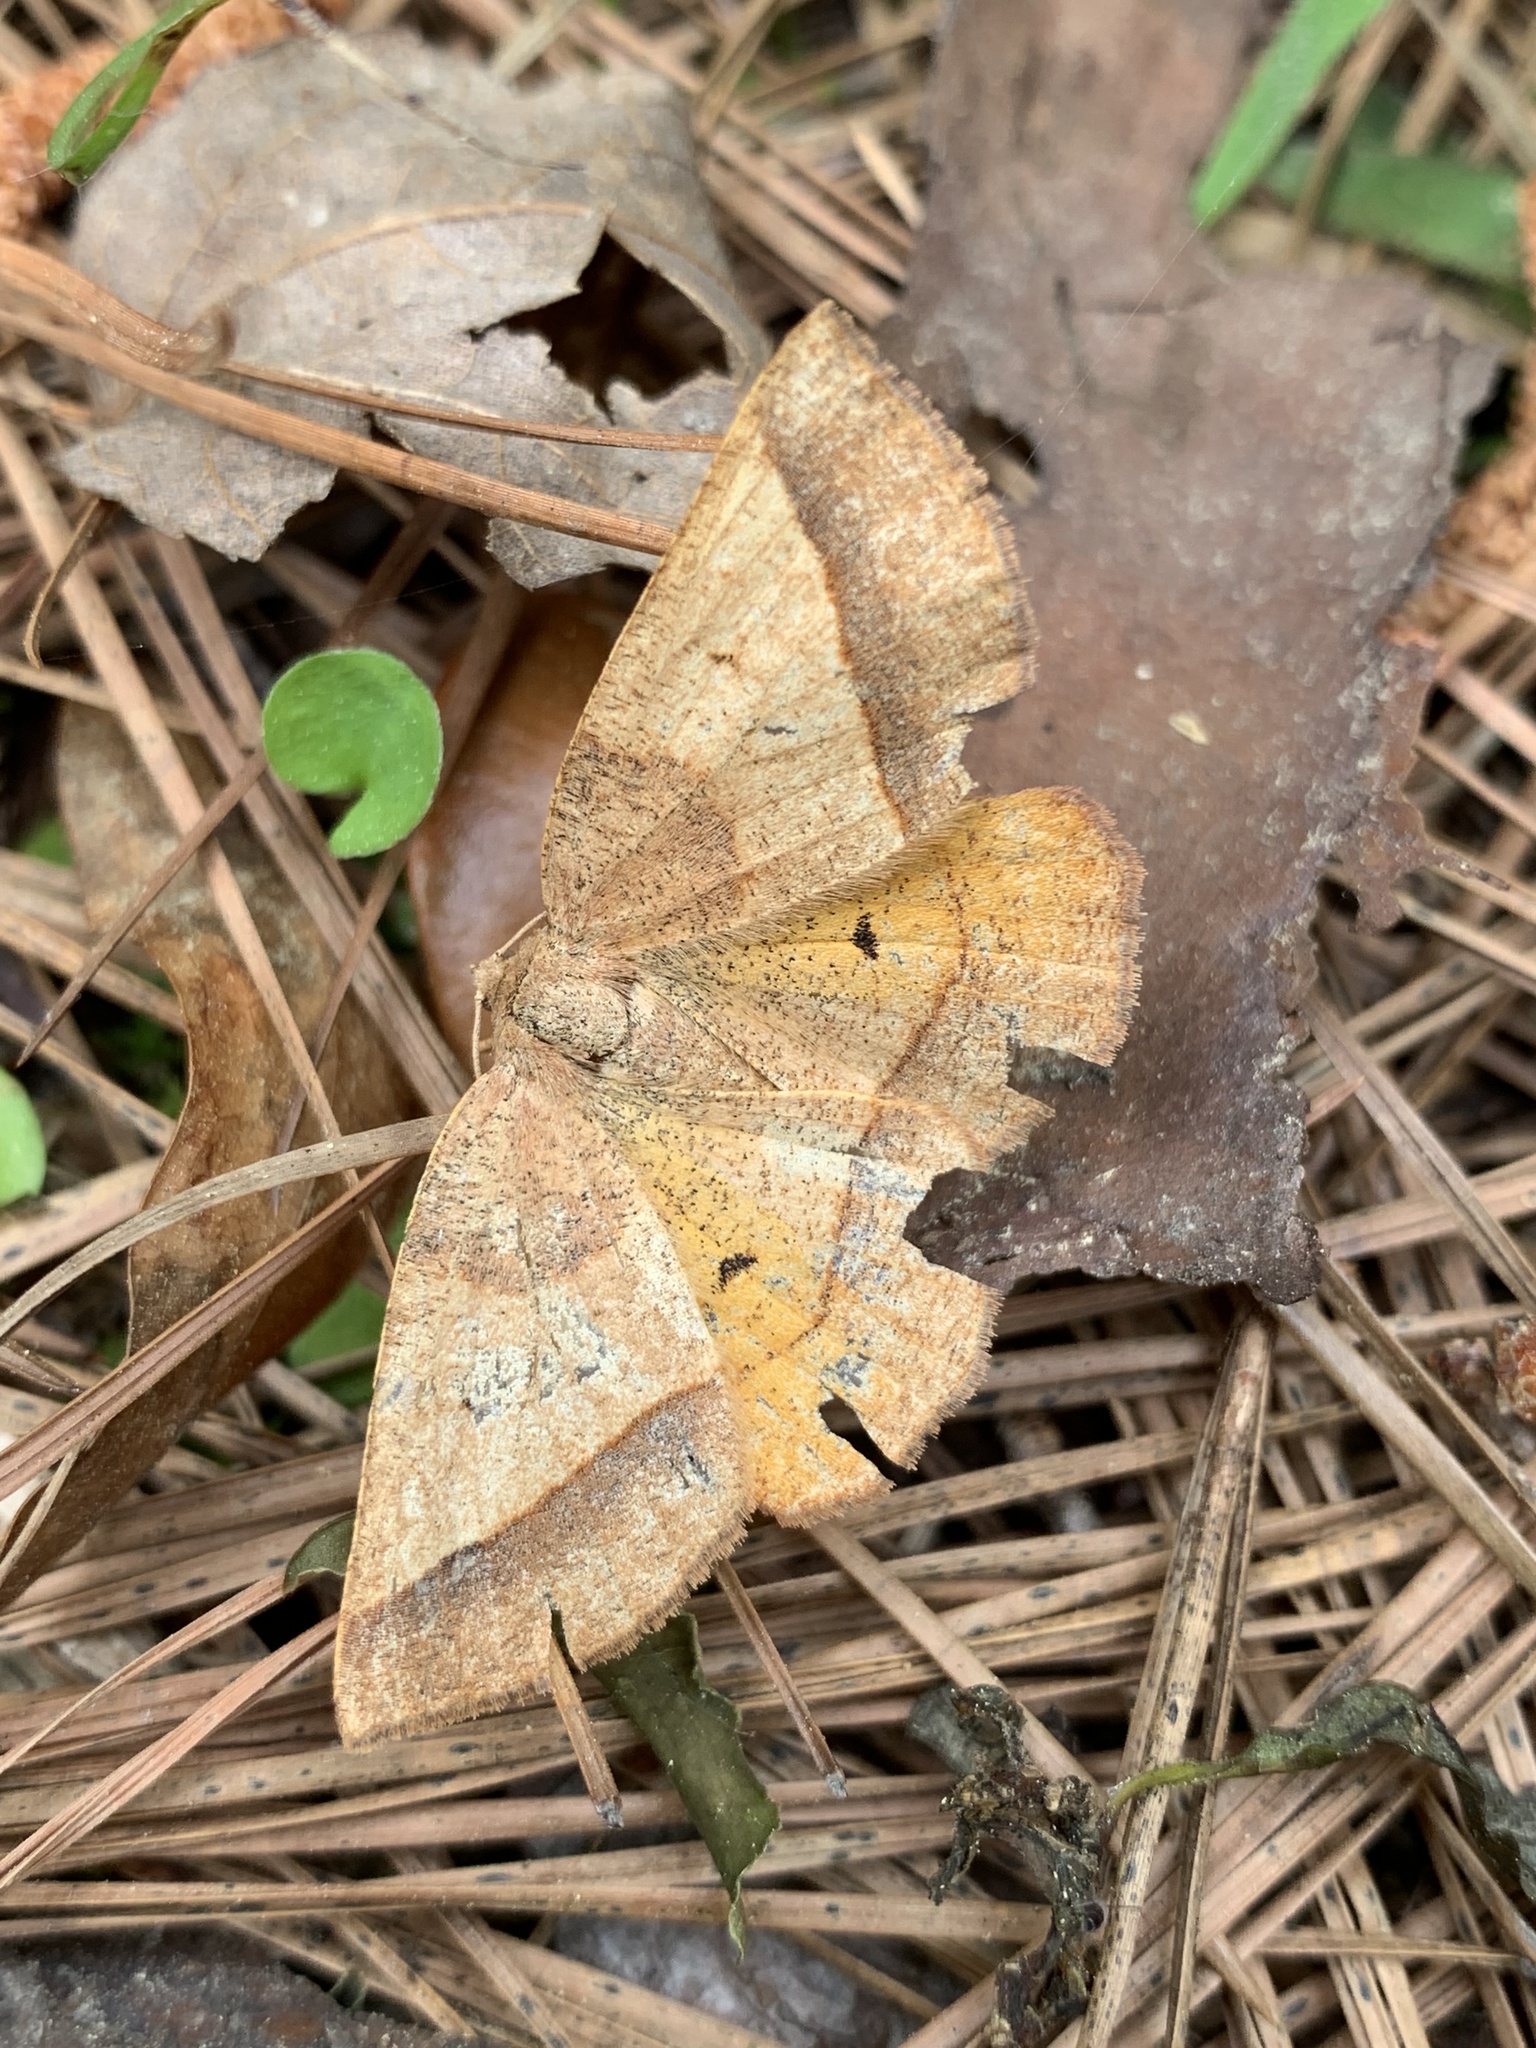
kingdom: Animalia
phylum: Arthropoda
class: Insecta
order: Lepidoptera
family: Geometridae
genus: Metarranthis
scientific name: Metarranthis obfirmaria
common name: Yellow-washed metarranthis
